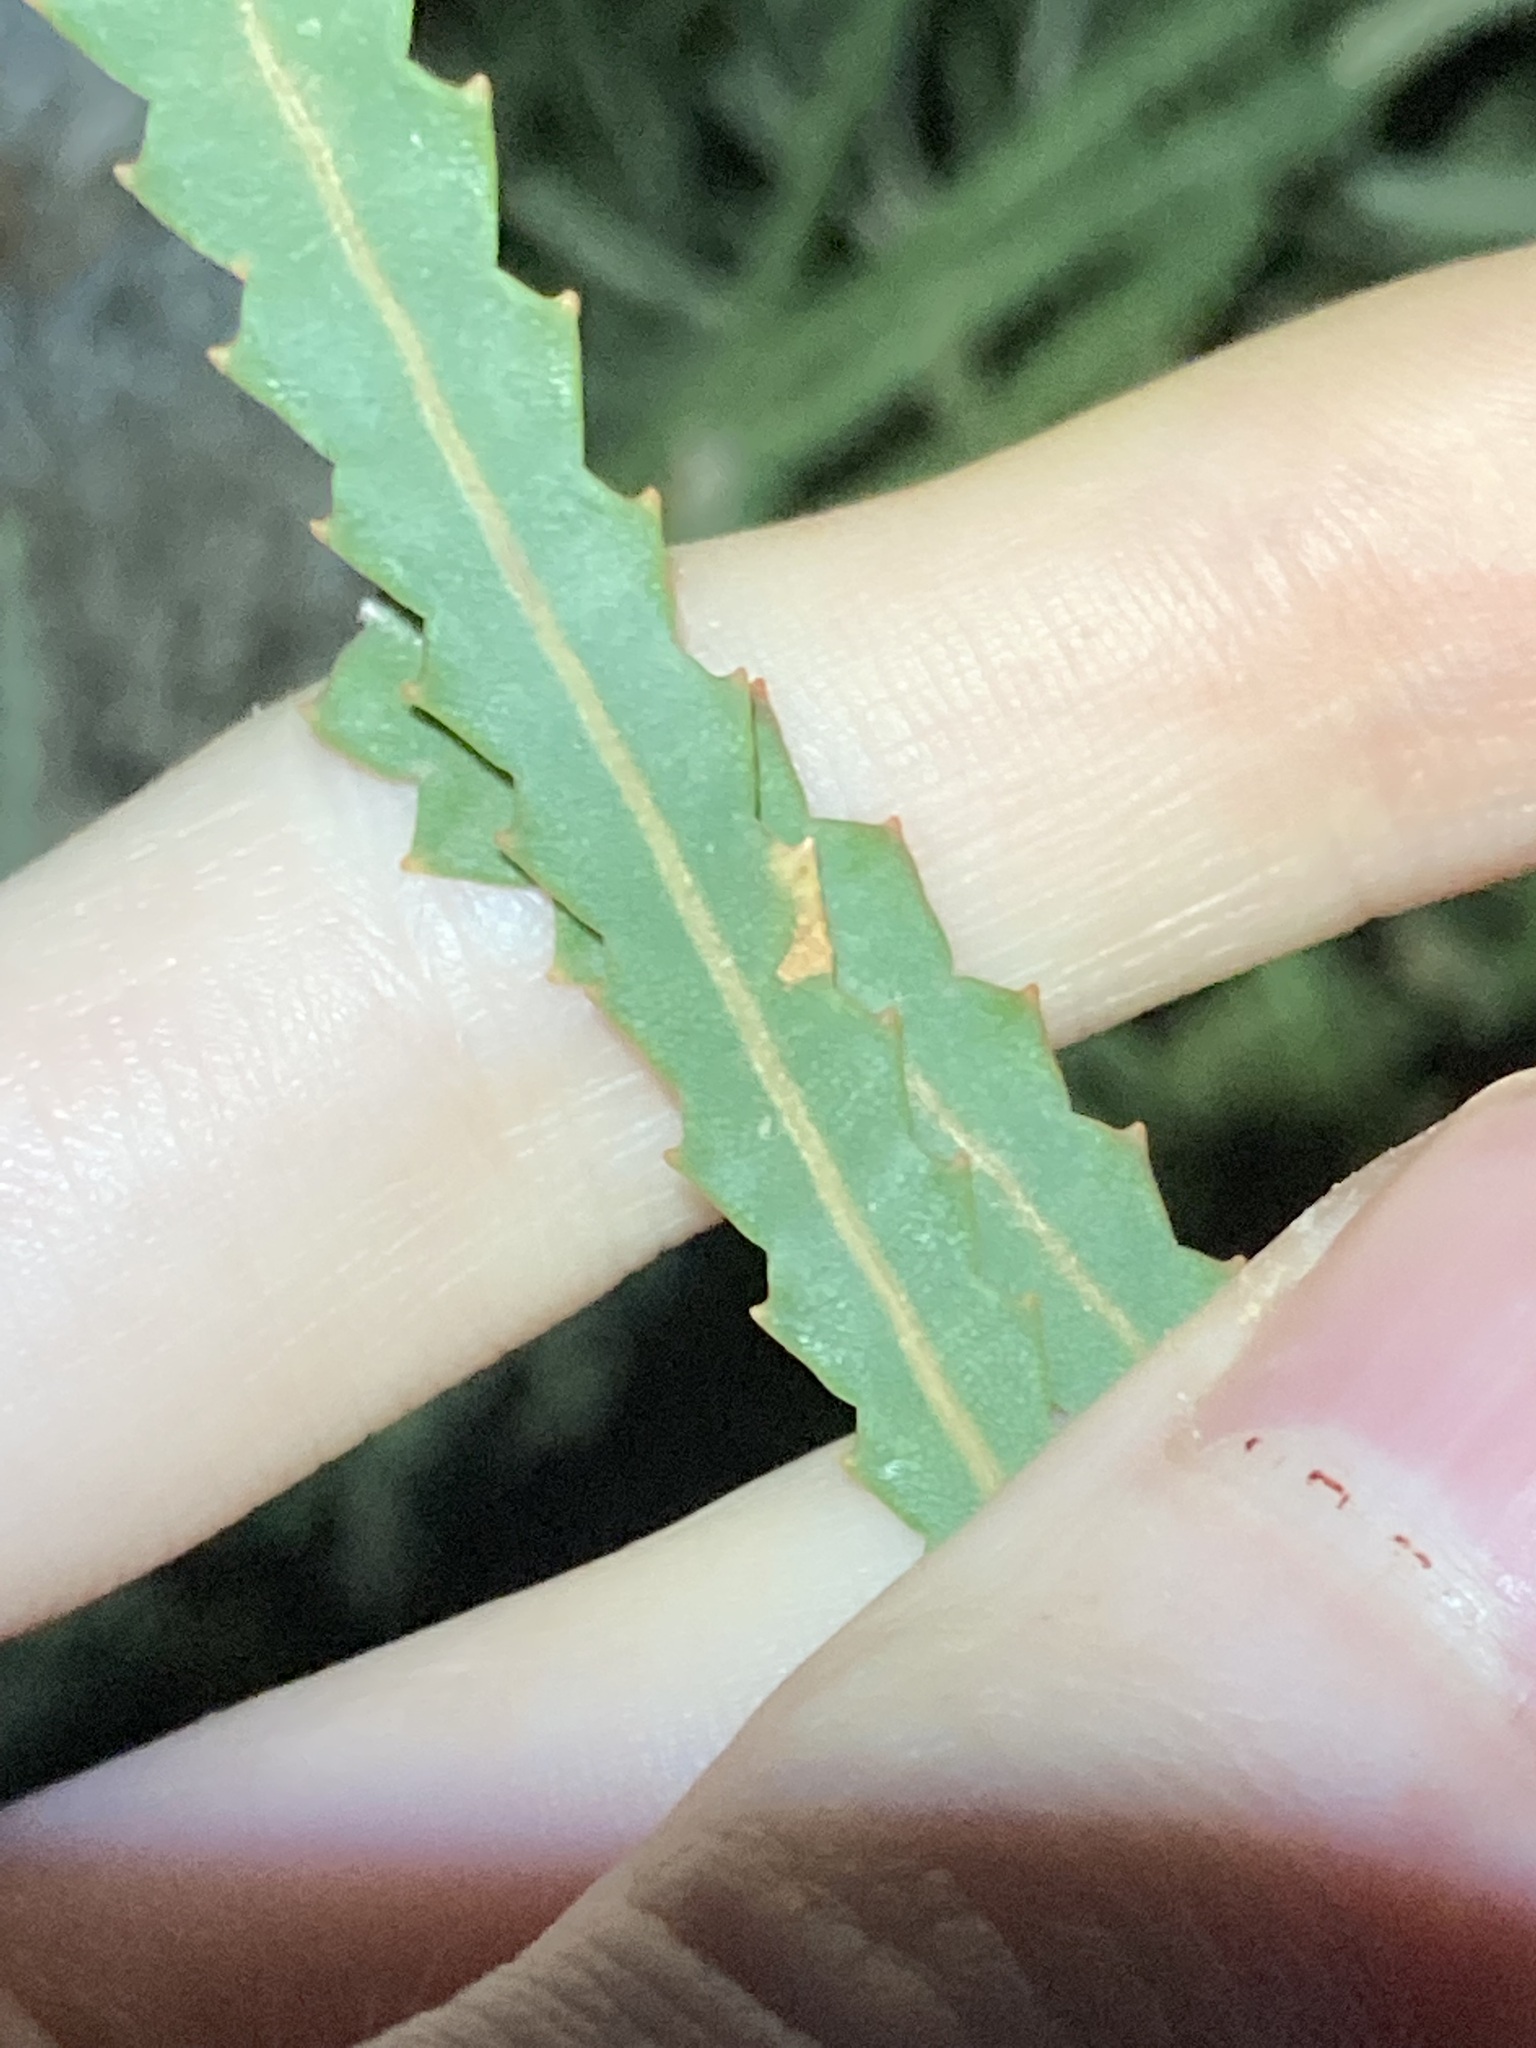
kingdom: Plantae
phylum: Tracheophyta
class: Magnoliopsida
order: Proteales
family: Proteaceae
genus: Banksia
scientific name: Banksia hookeriana
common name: Hooker's banksia
